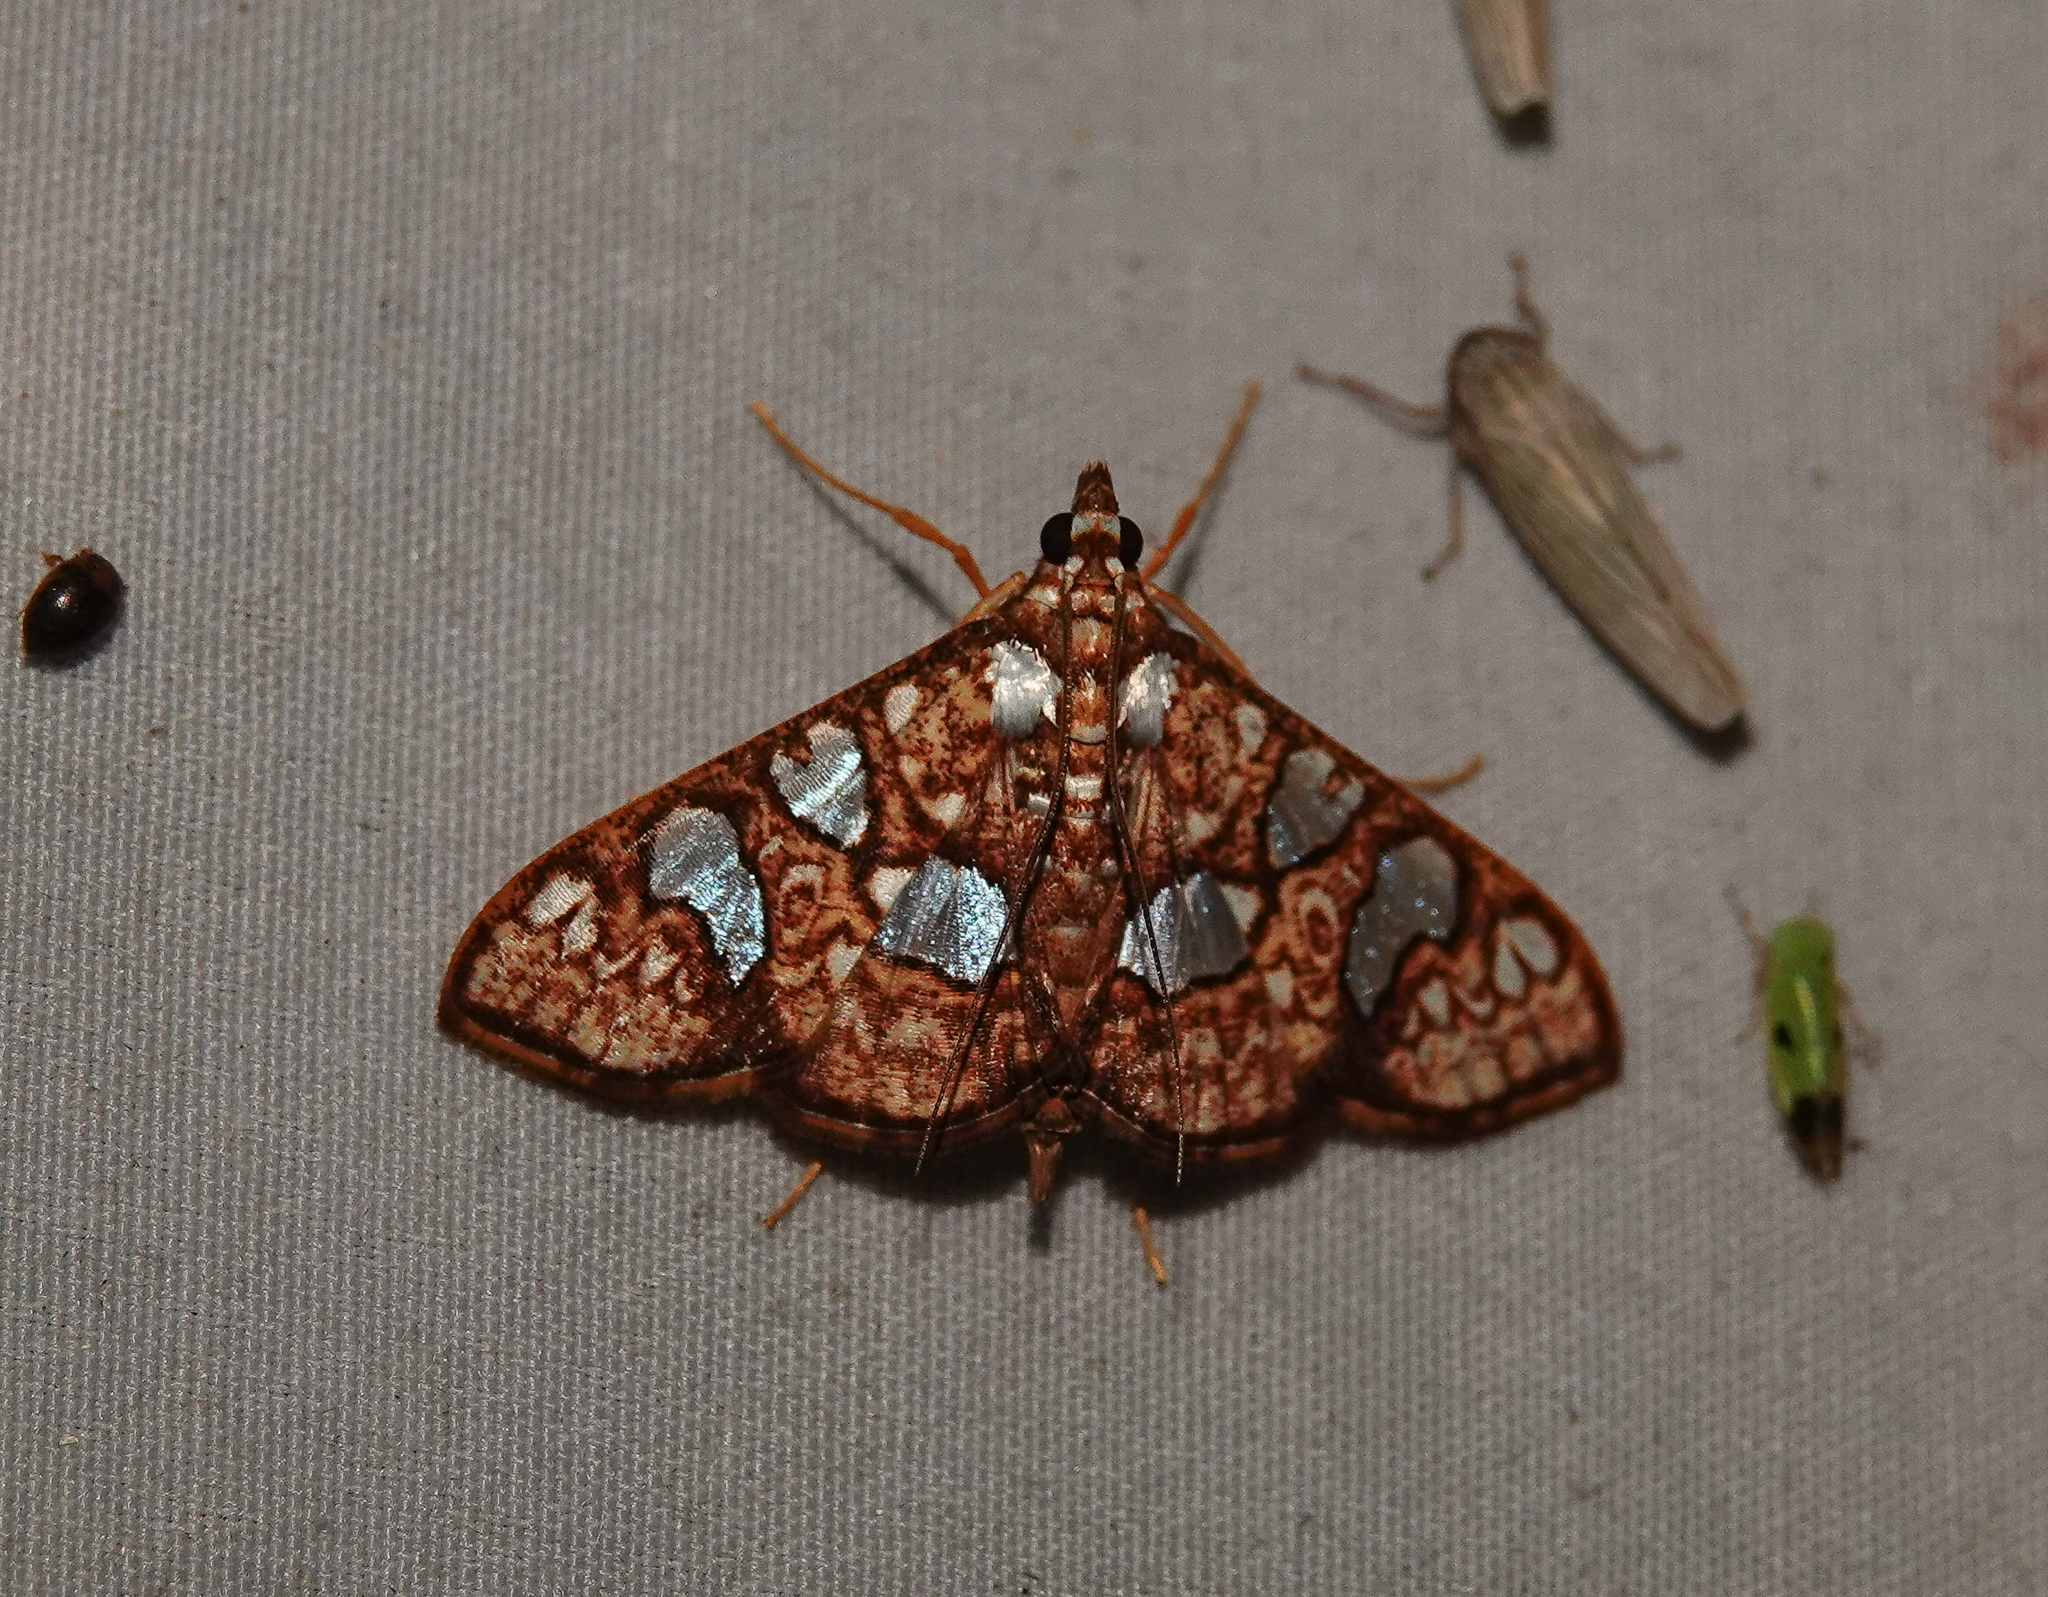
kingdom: Animalia
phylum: Arthropoda
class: Insecta
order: Lepidoptera
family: Crambidae
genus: Glyphodes
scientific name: Glyphodes canthusalis
